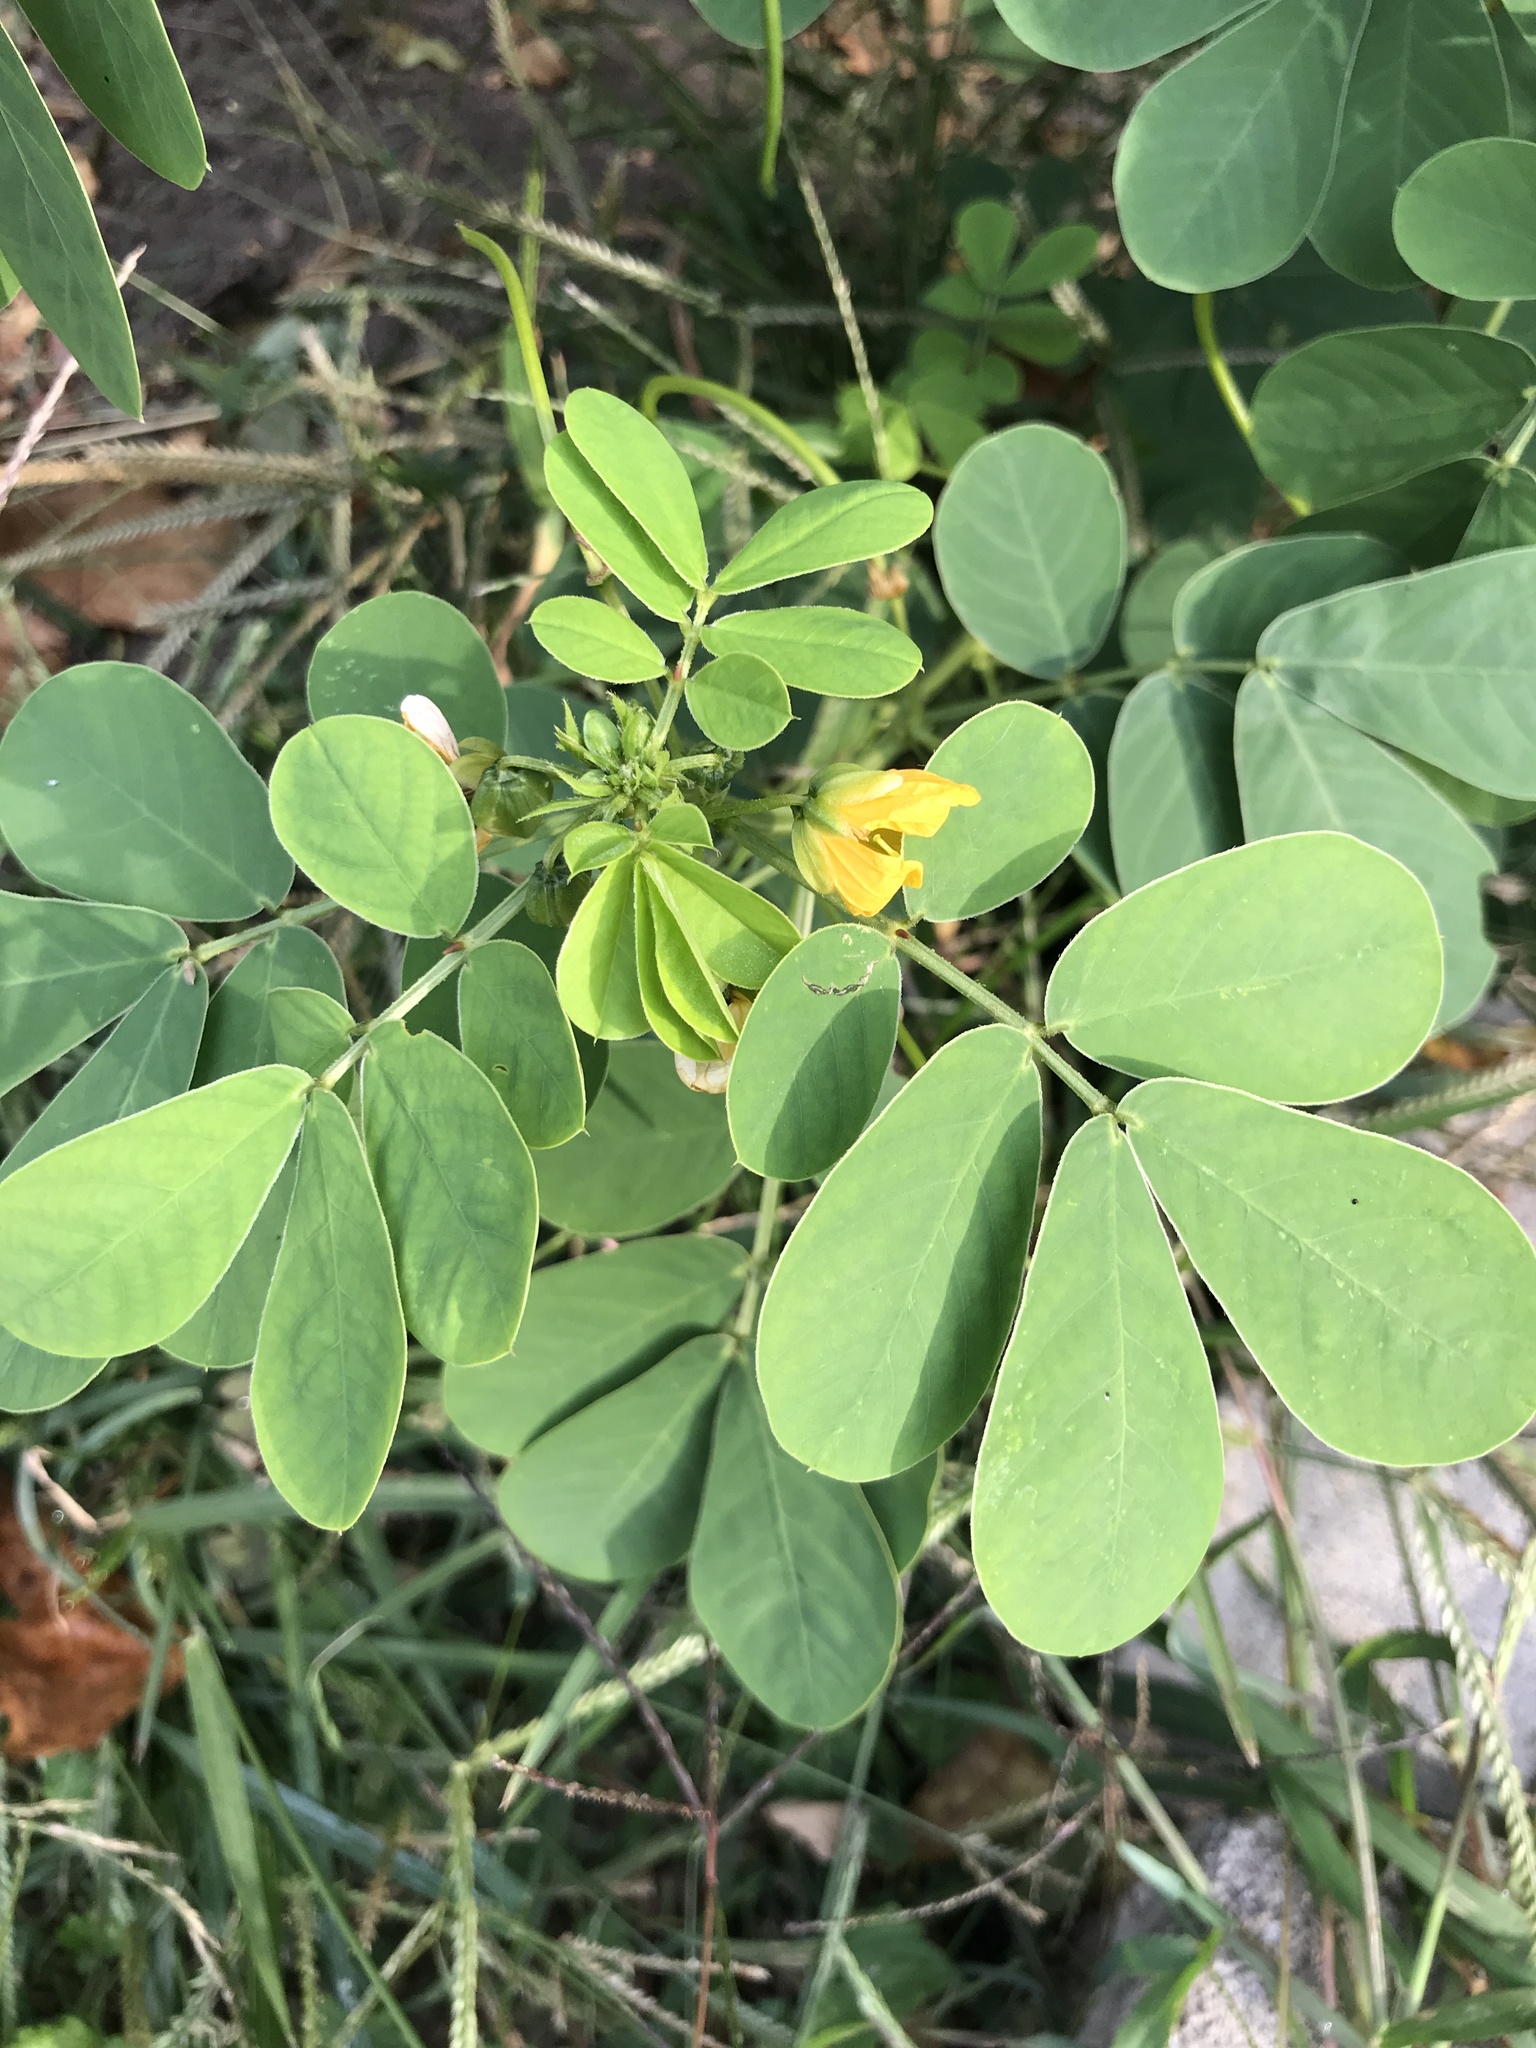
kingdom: Plantae
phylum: Tracheophyta
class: Magnoliopsida
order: Fabales
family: Fabaceae
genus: Senna
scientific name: Senna obtusifolia
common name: Java-bean
